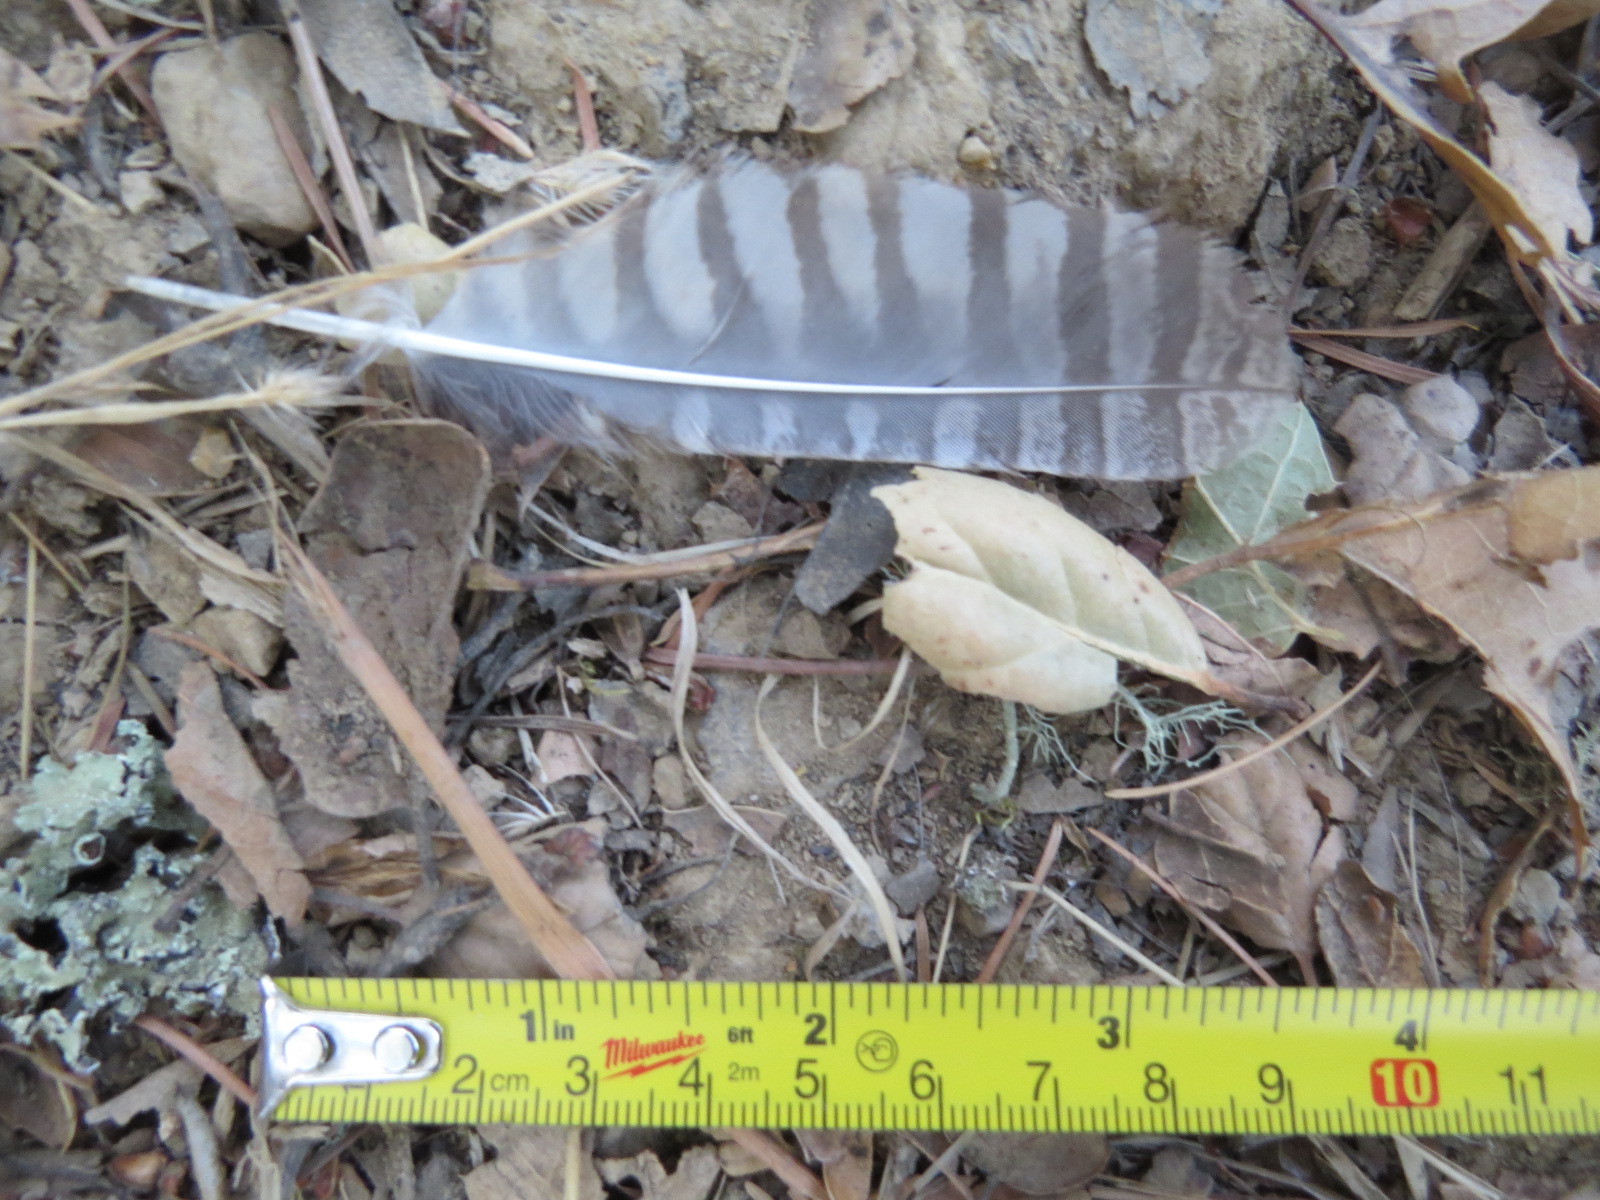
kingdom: Animalia
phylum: Chordata
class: Aves
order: Strigiformes
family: Strigidae
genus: Megascops
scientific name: Megascops kennicottii
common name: Western screech-owl
